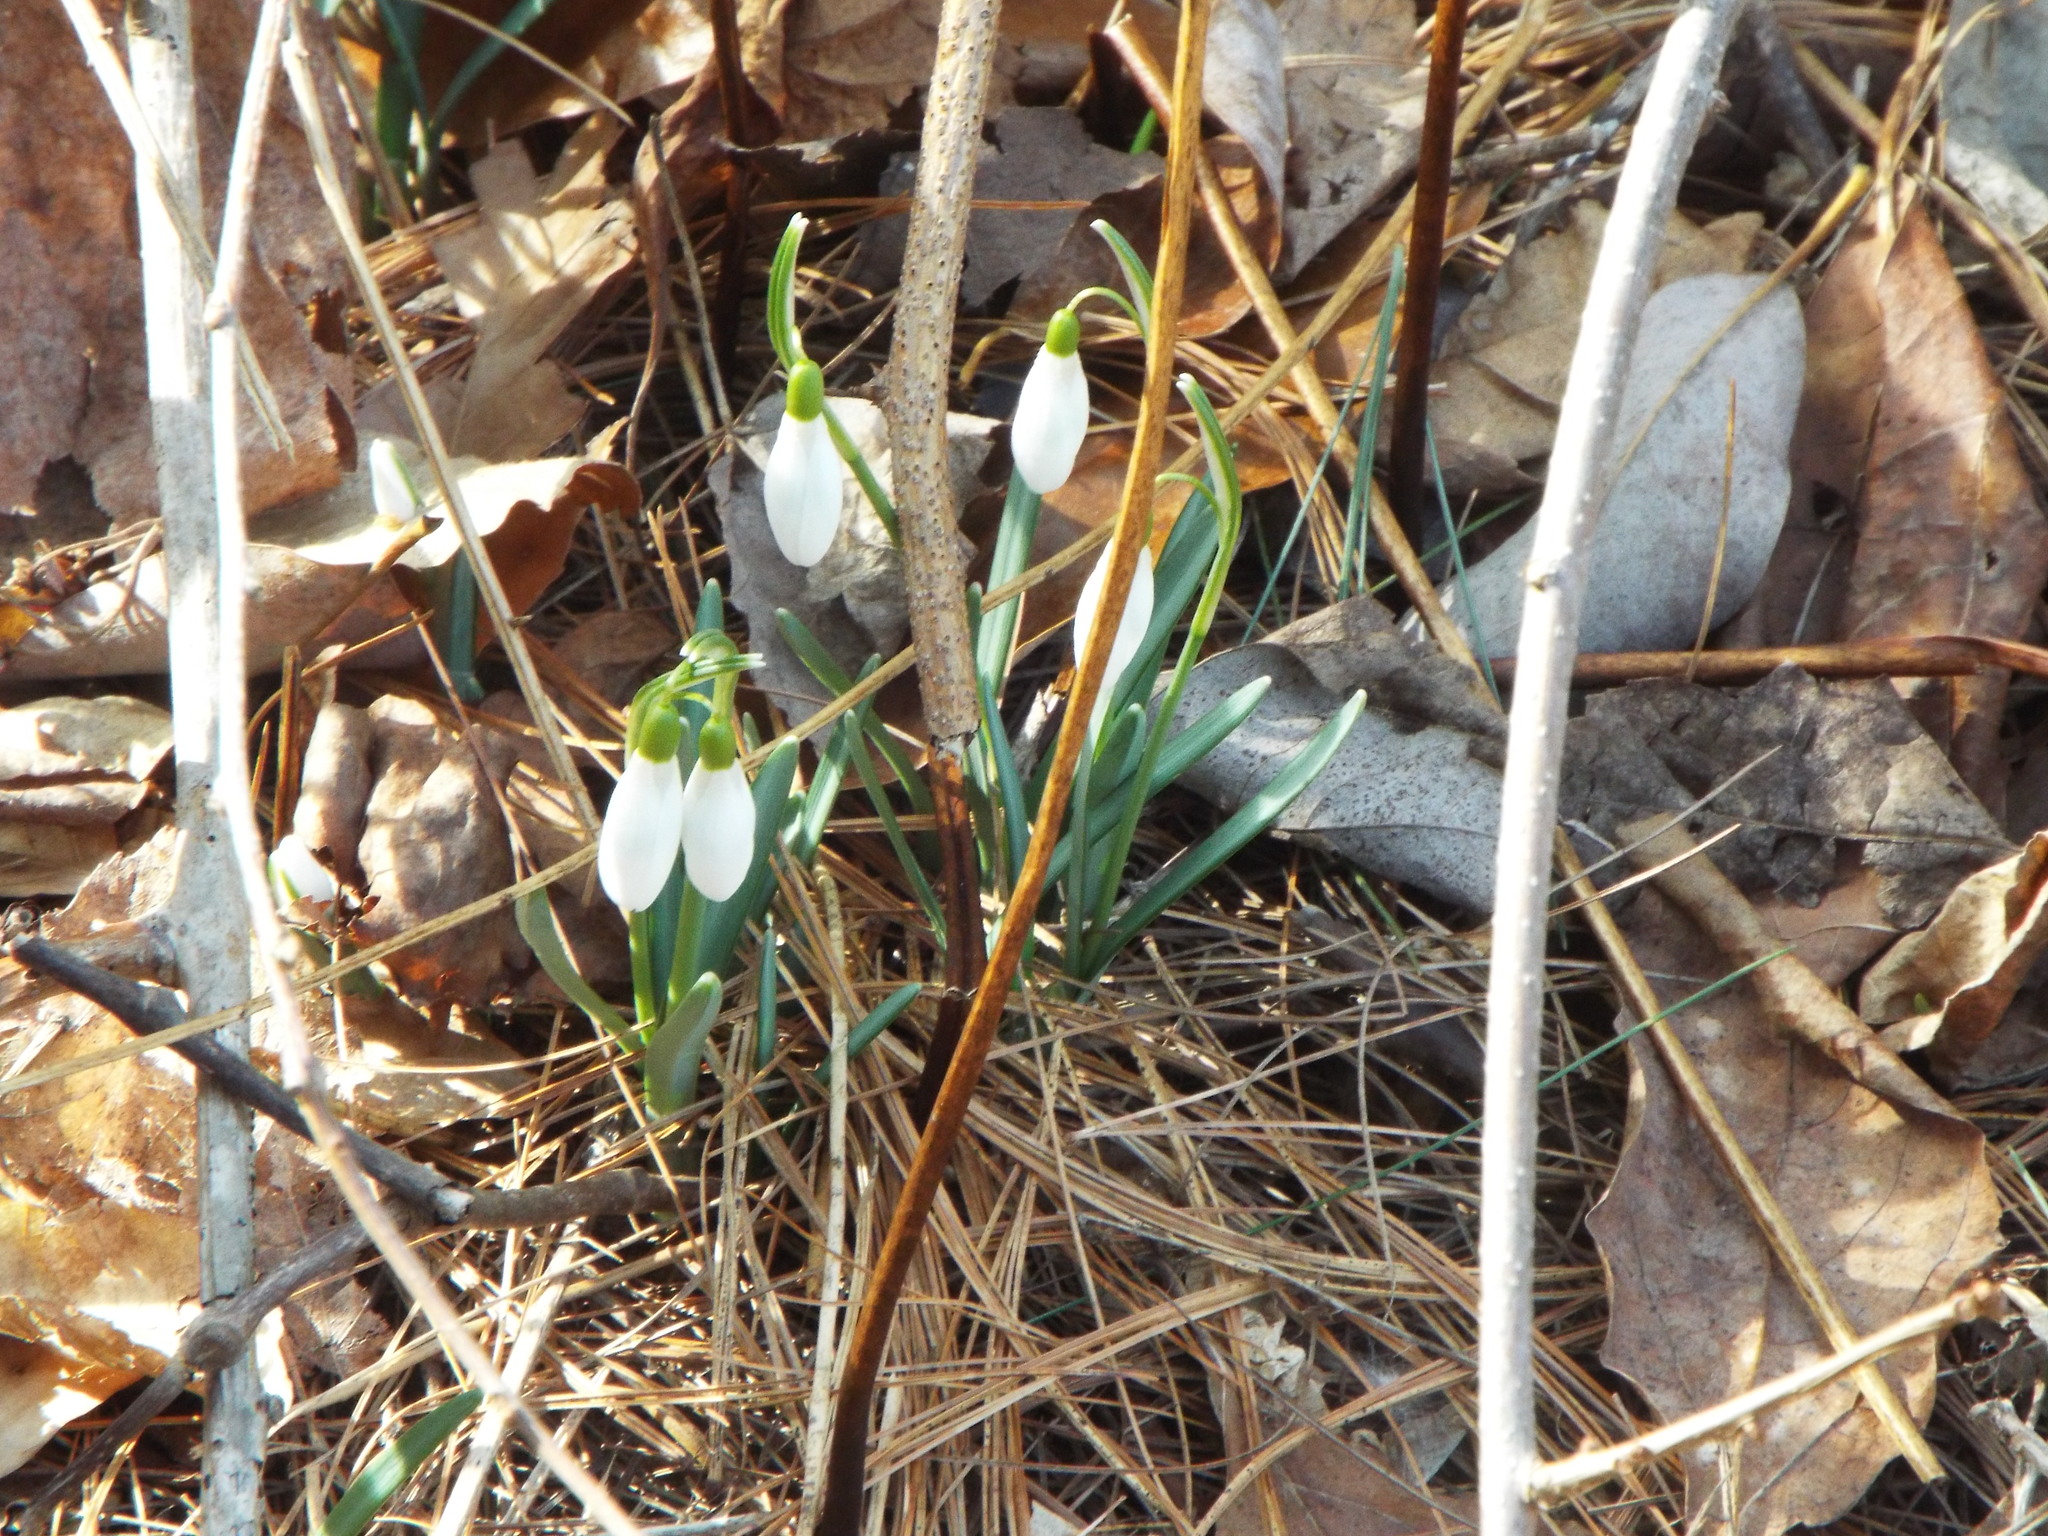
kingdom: Plantae
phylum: Tracheophyta
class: Liliopsida
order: Asparagales
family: Amaryllidaceae
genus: Galanthus
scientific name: Galanthus nivalis
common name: Snowdrop
